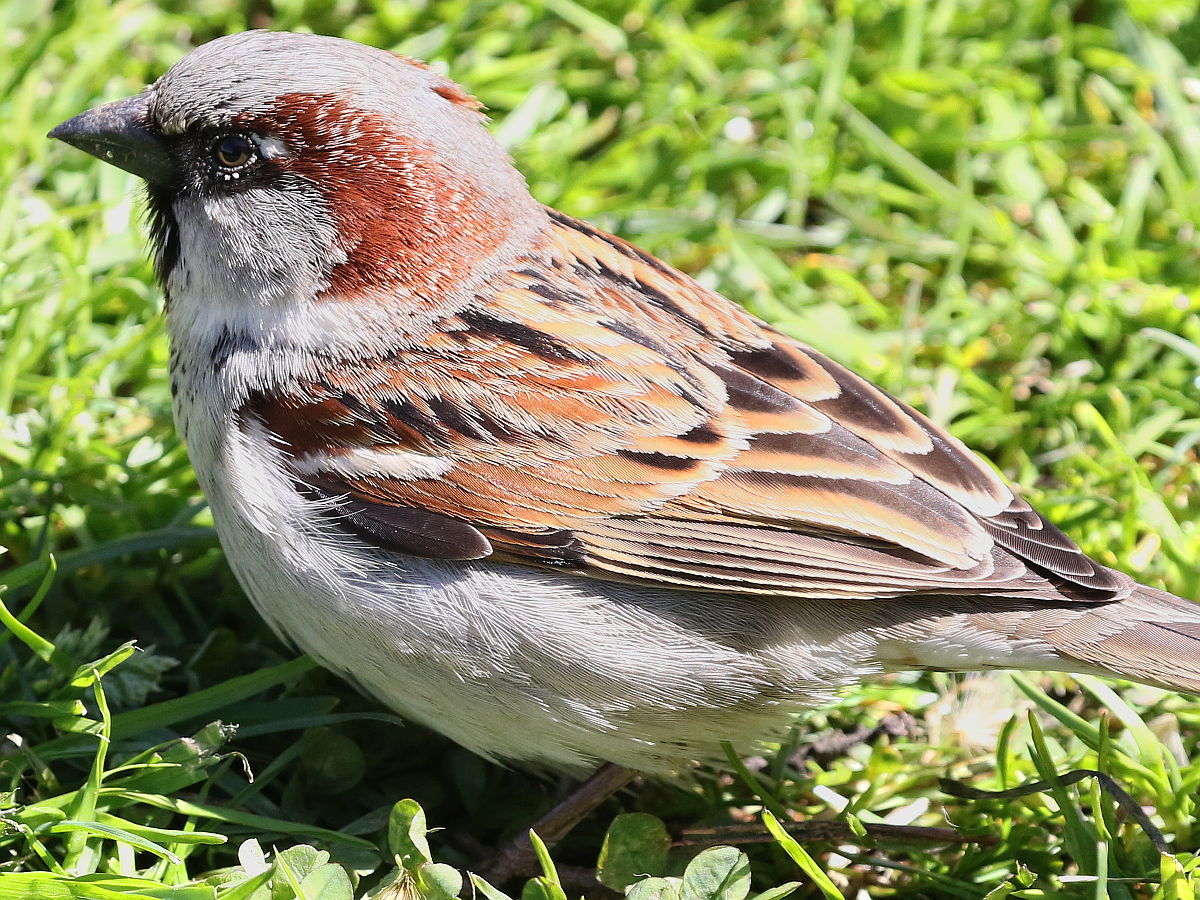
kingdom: Animalia
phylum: Chordata
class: Aves
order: Passeriformes
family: Passeridae
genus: Passer
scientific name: Passer domesticus
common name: House sparrow
